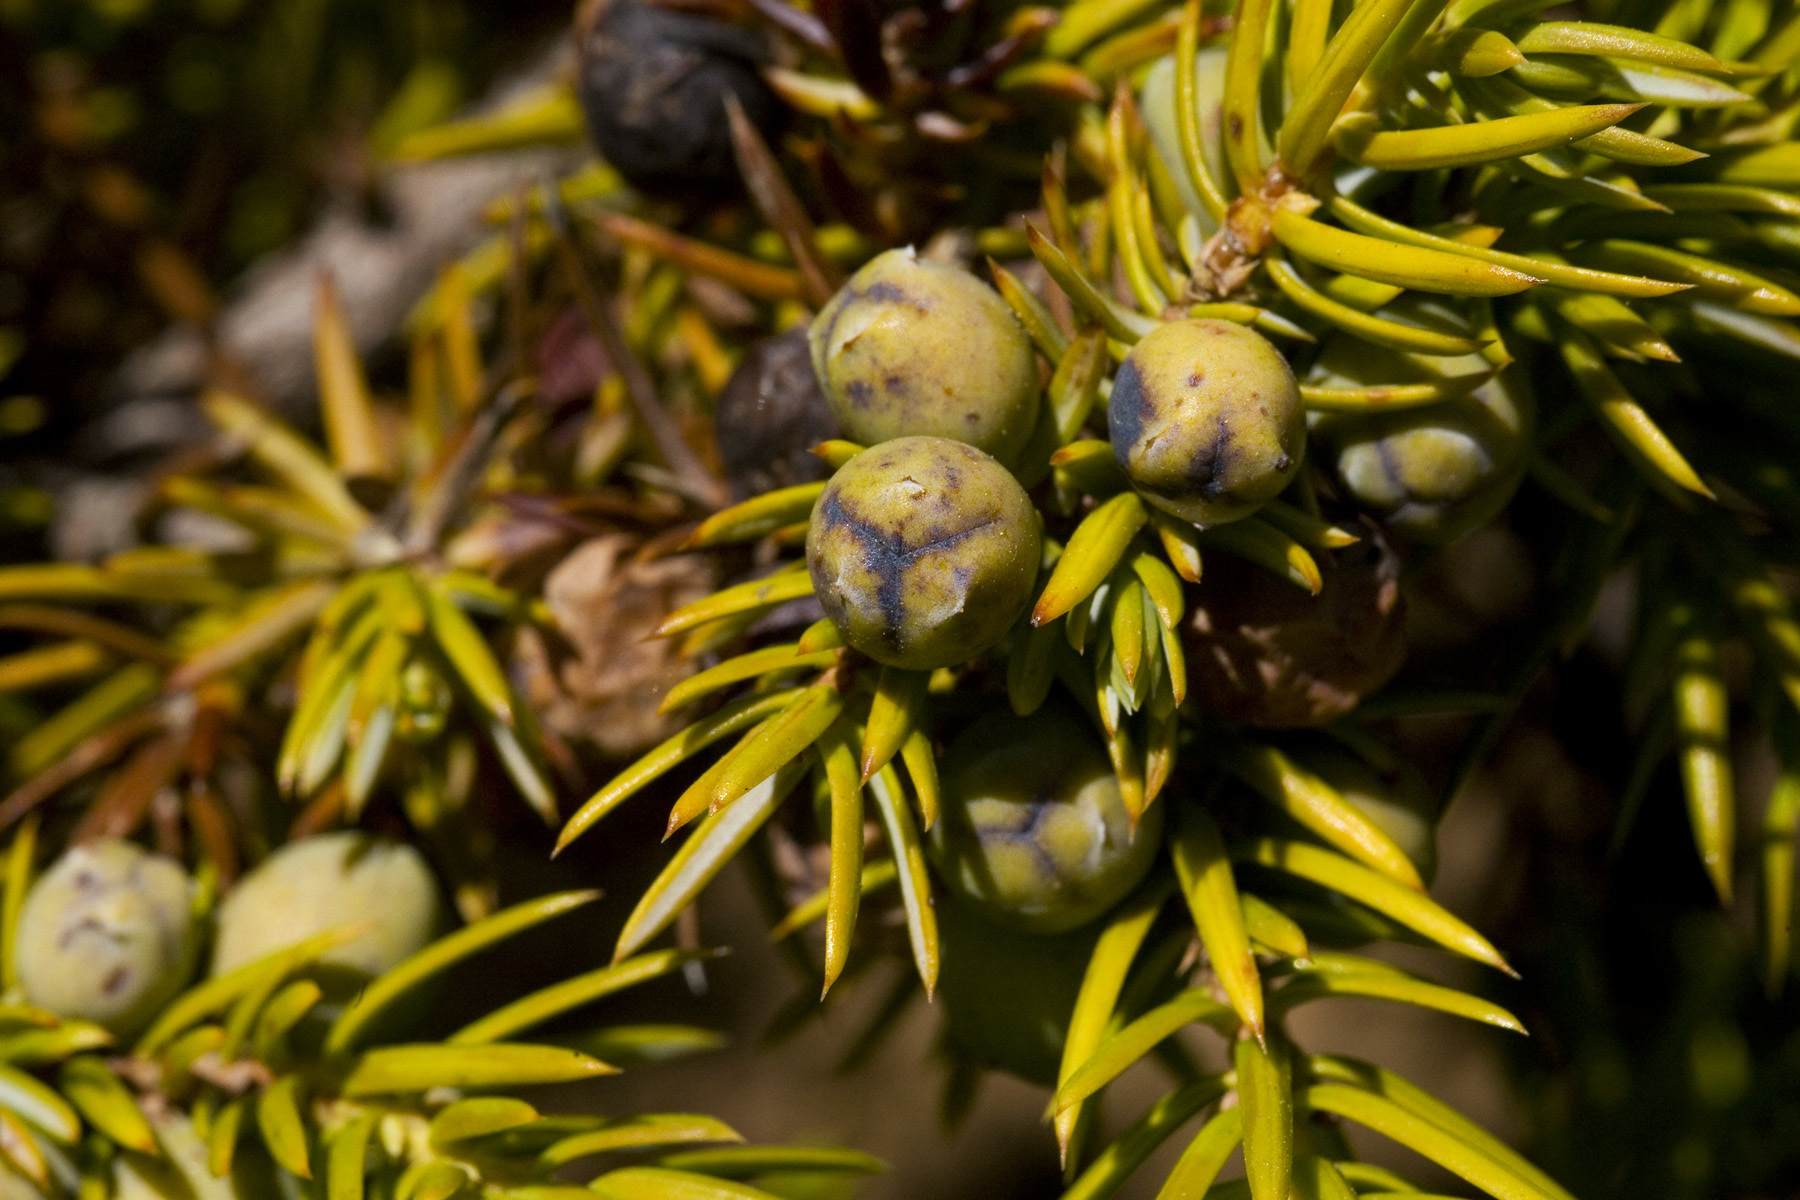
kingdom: Plantae
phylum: Tracheophyta
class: Pinopsida
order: Pinales
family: Cupressaceae
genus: Juniperus
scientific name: Juniperus communis
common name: Common juniper
